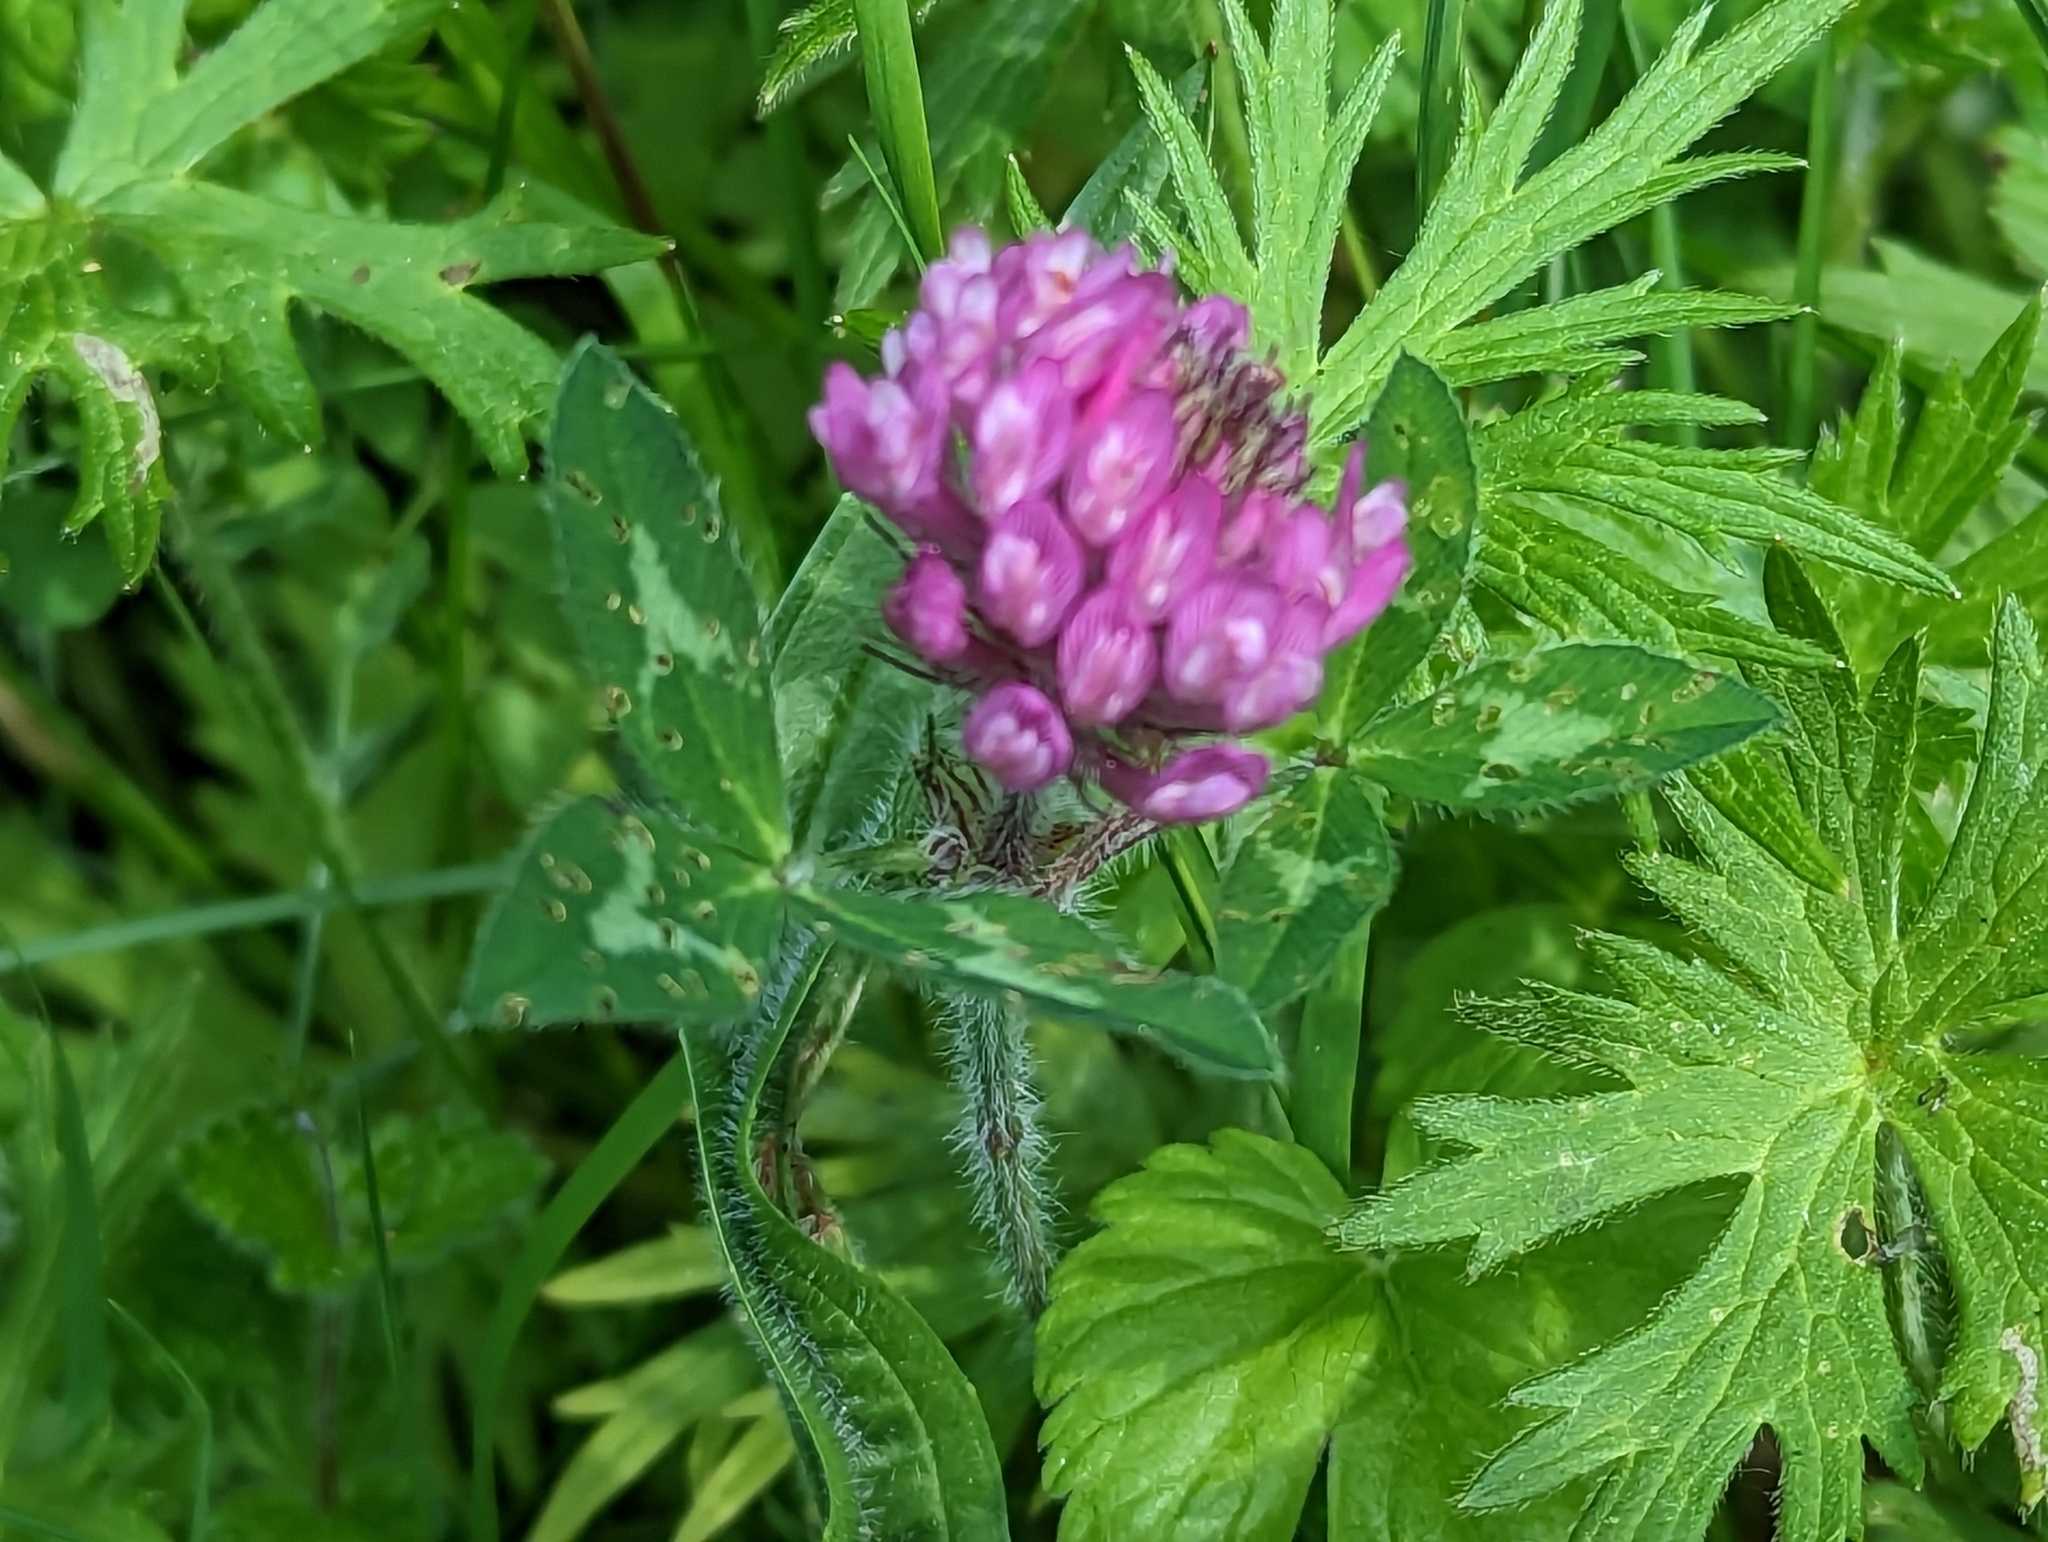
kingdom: Plantae
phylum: Tracheophyta
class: Magnoliopsida
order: Fabales
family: Fabaceae
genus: Trifolium
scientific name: Trifolium pratense
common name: Red clover
